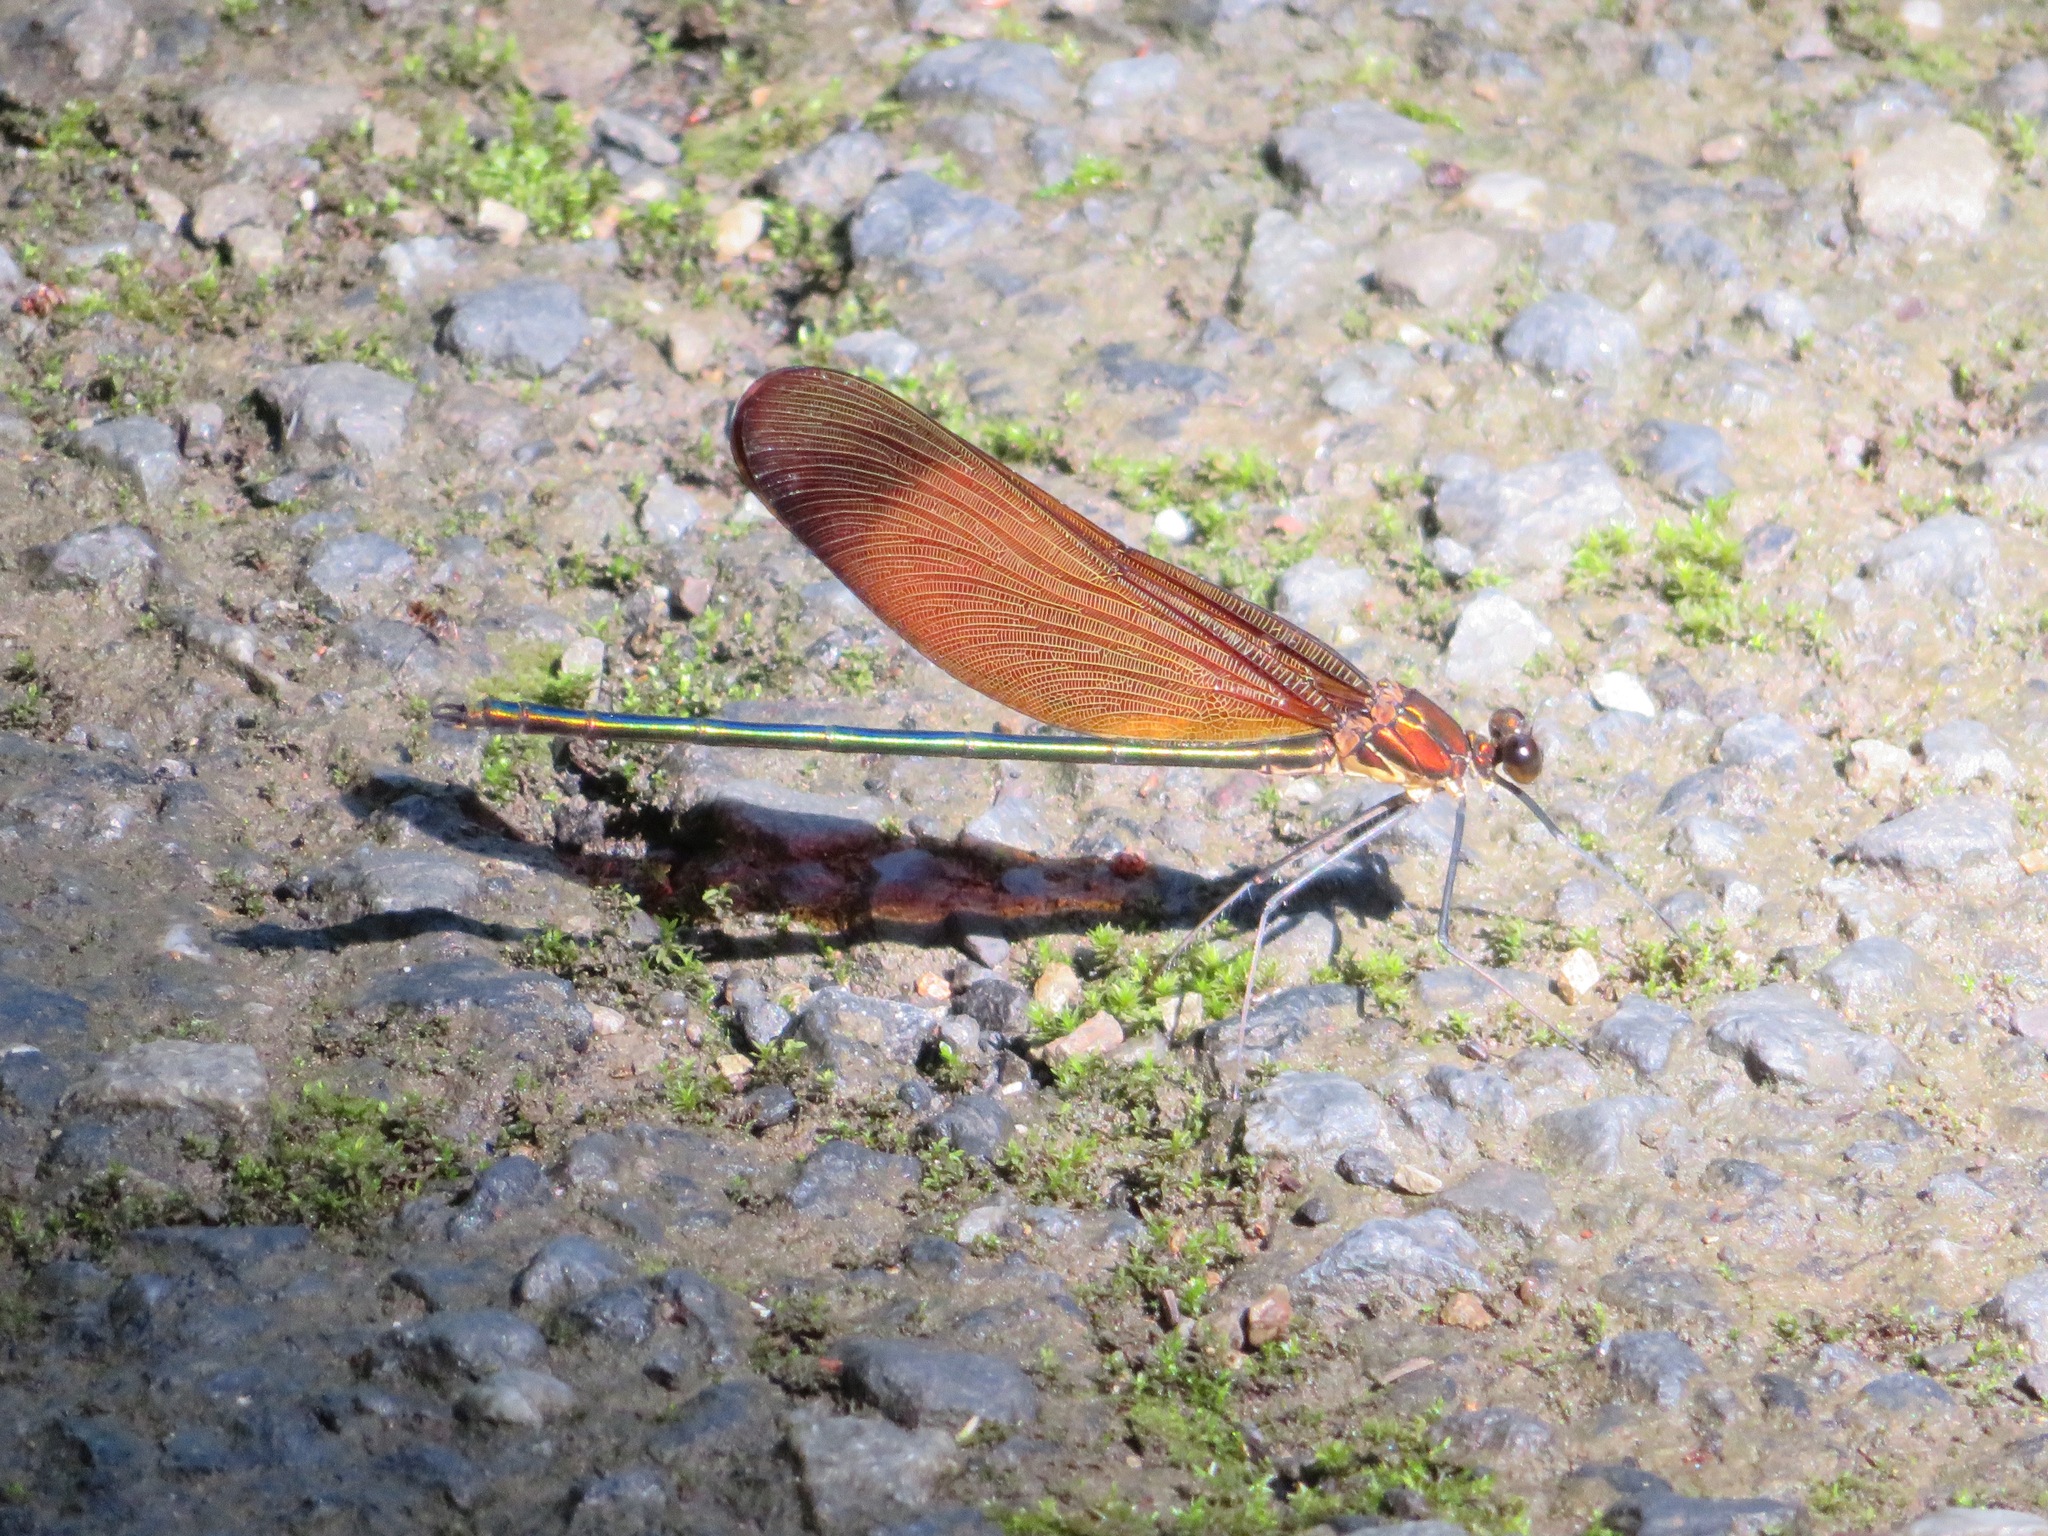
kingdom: Animalia
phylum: Arthropoda
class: Insecta
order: Odonata
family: Calopterygidae
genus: Calopteryx
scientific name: Calopteryx cornelia
